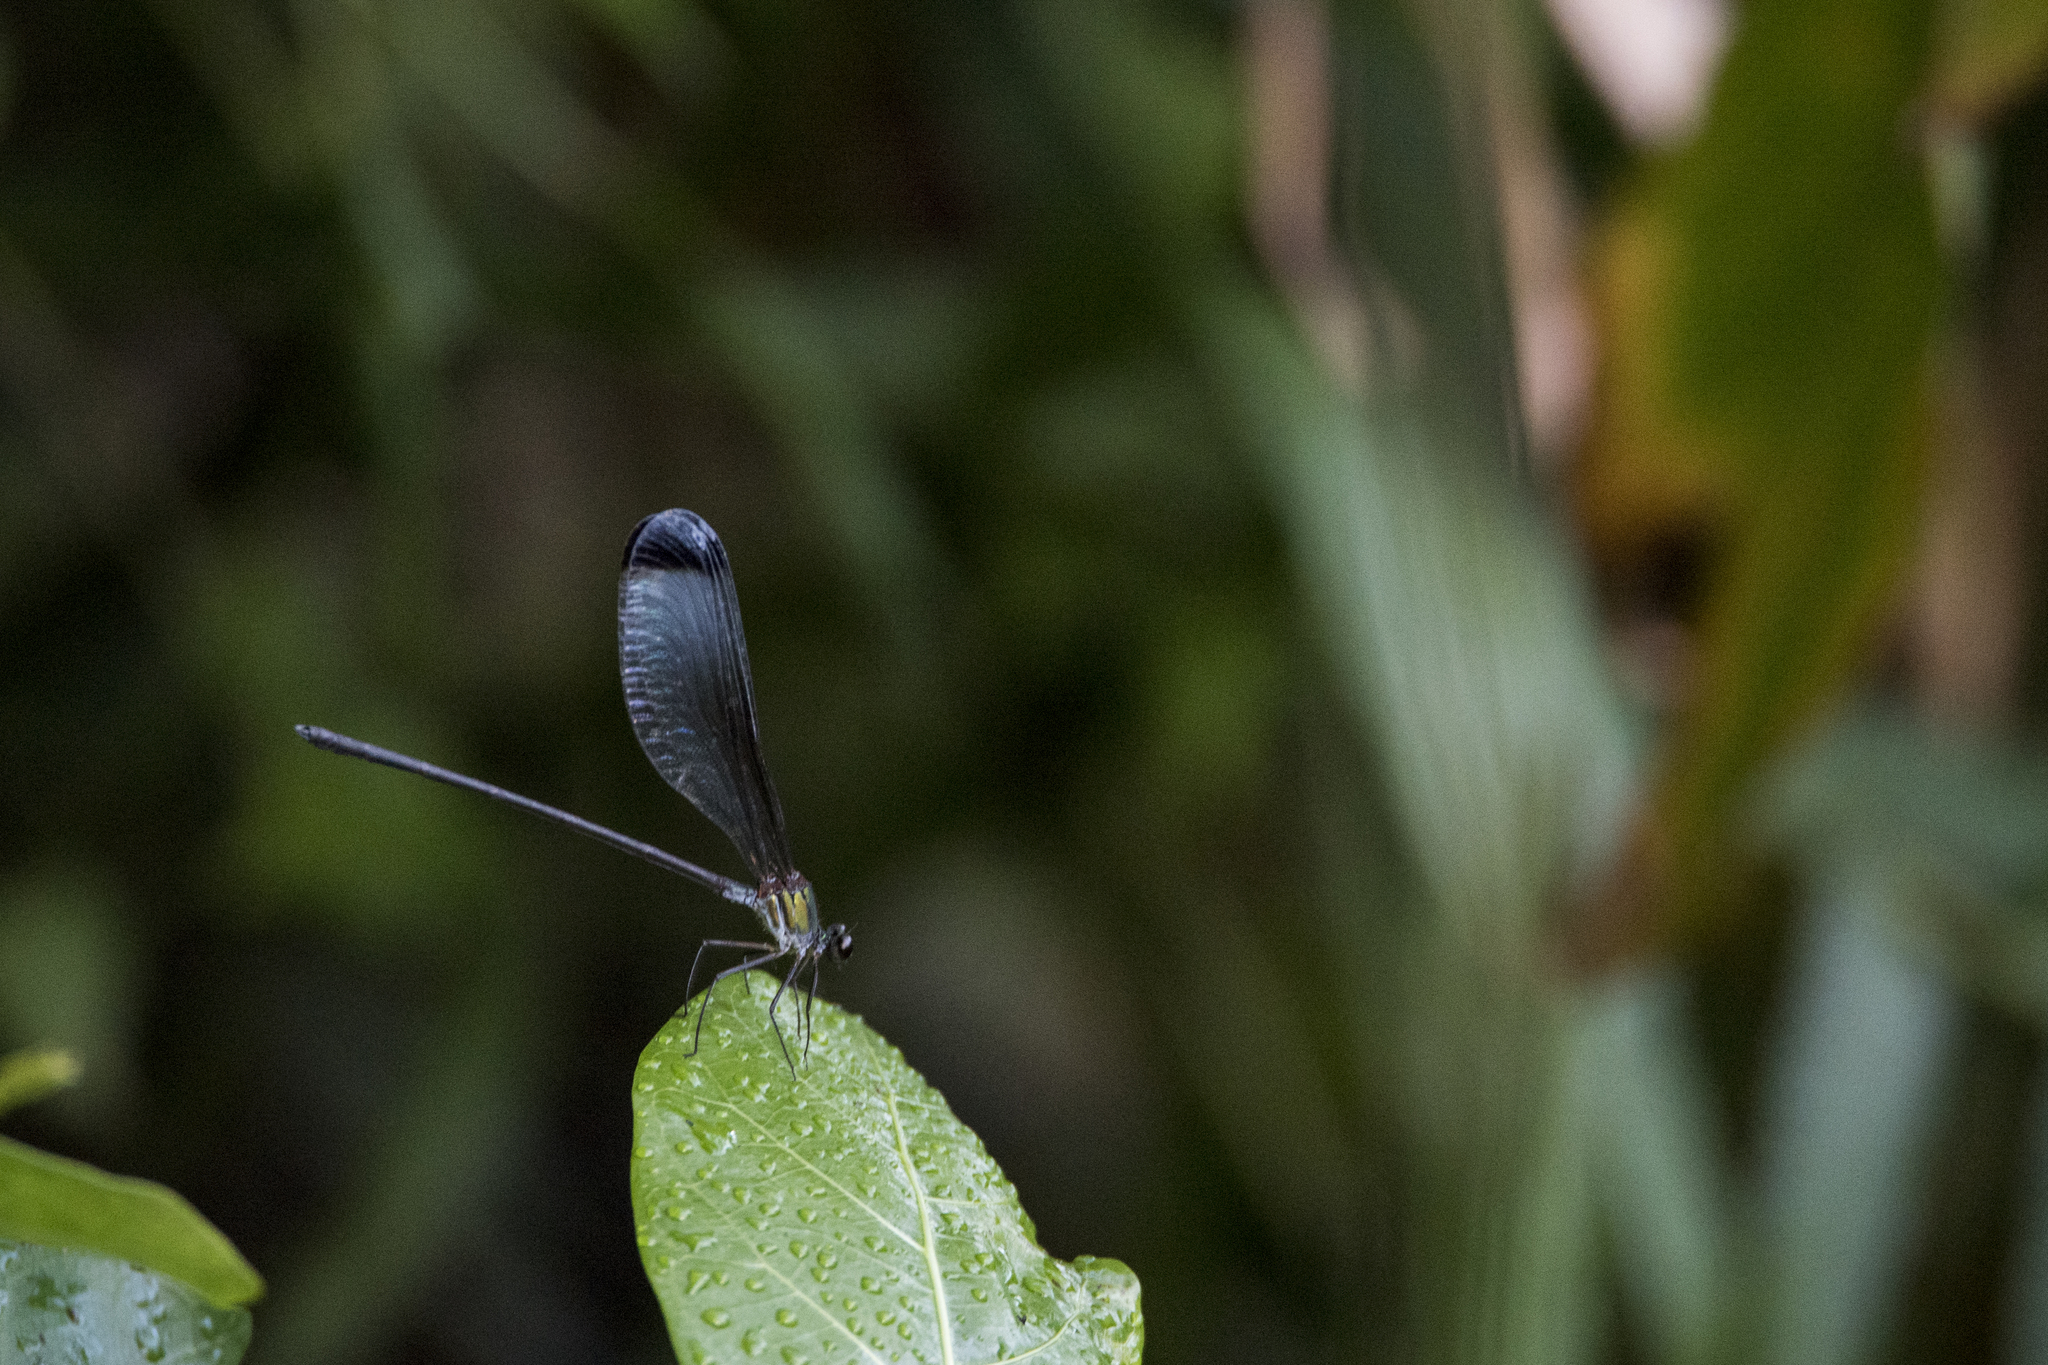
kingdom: Animalia
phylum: Arthropoda
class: Insecta
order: Odonata
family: Calopterygidae
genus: Psolodesmus
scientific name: Psolodesmus mandarinus
